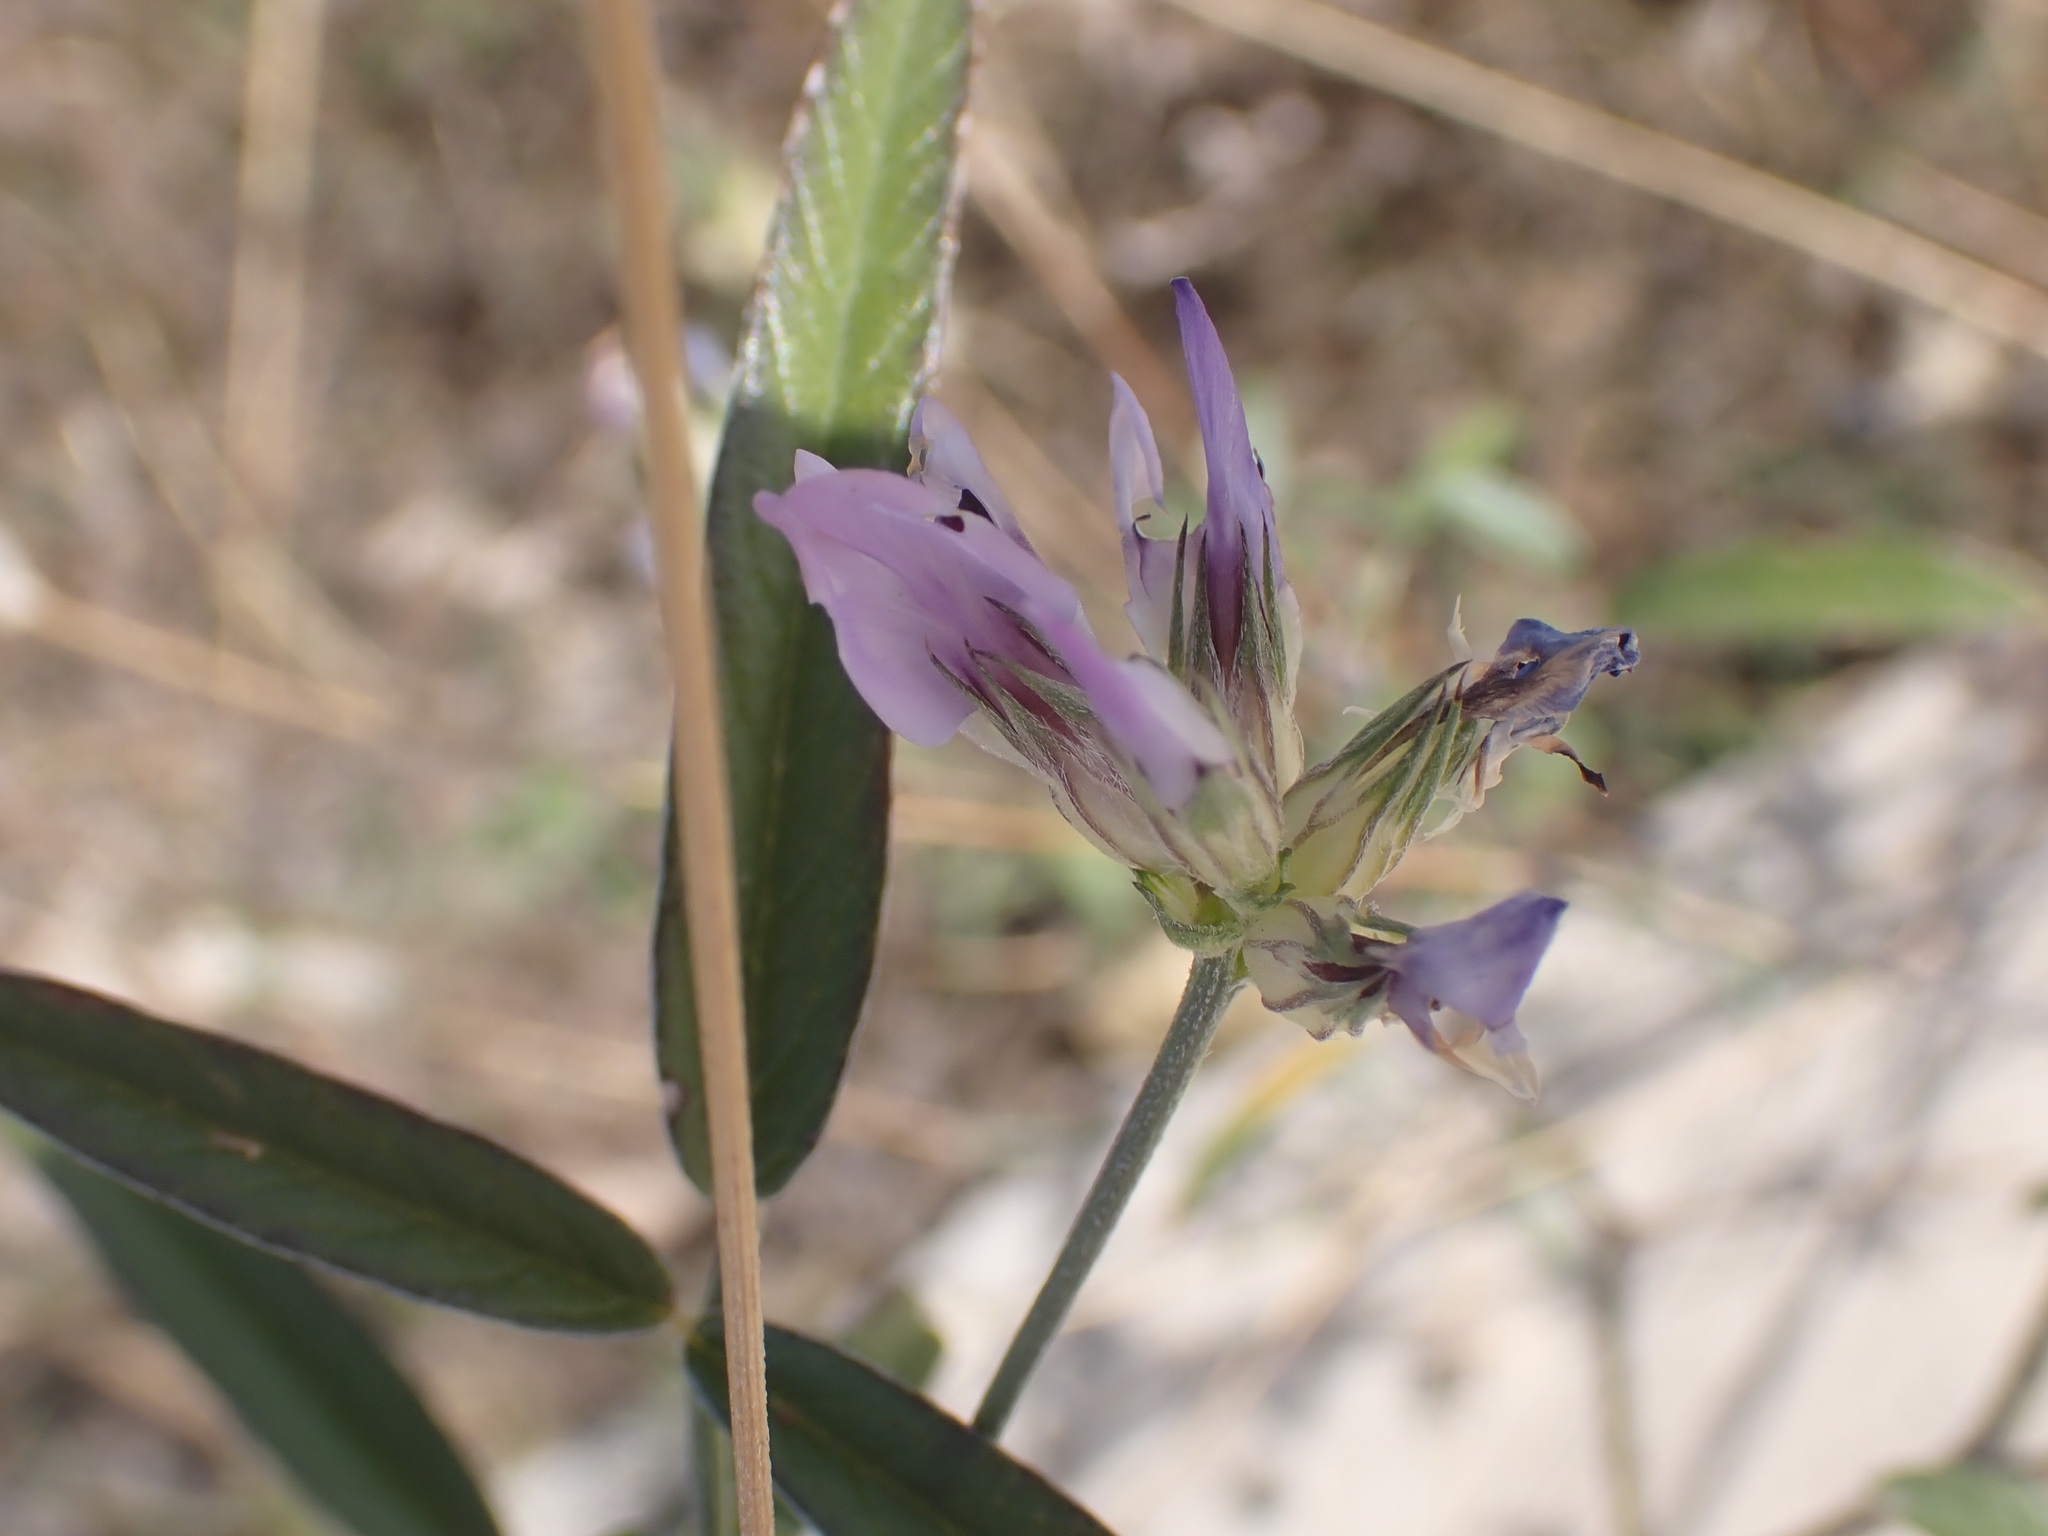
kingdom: Plantae
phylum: Tracheophyta
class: Magnoliopsida
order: Fabales
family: Fabaceae
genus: Bituminaria
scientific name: Bituminaria bituminosa
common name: Arabian pea
